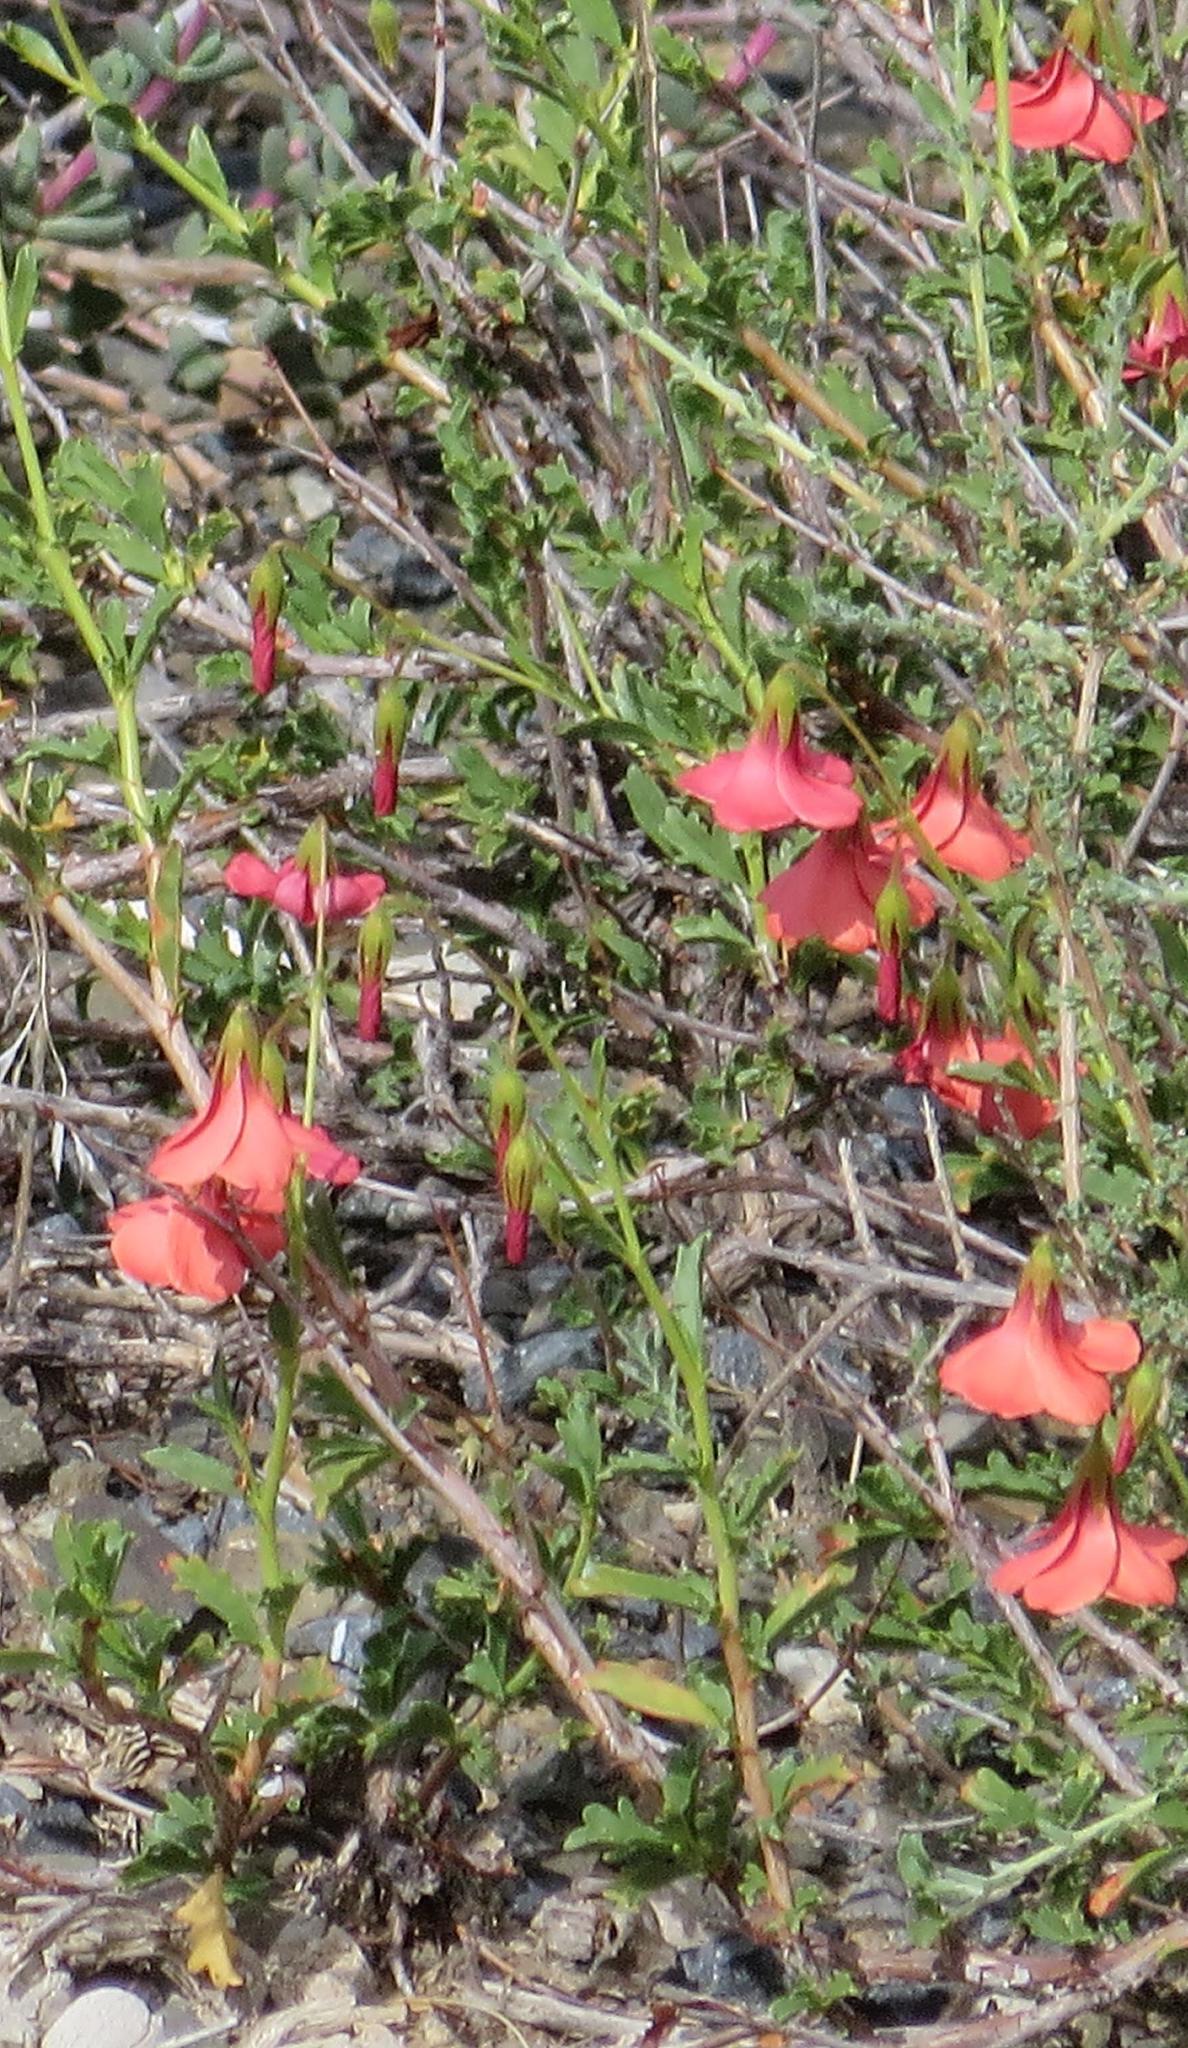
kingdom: Plantae
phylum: Tracheophyta
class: Magnoliopsida
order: Malvales
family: Malvaceae
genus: Hermannia
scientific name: Hermannia stricta
